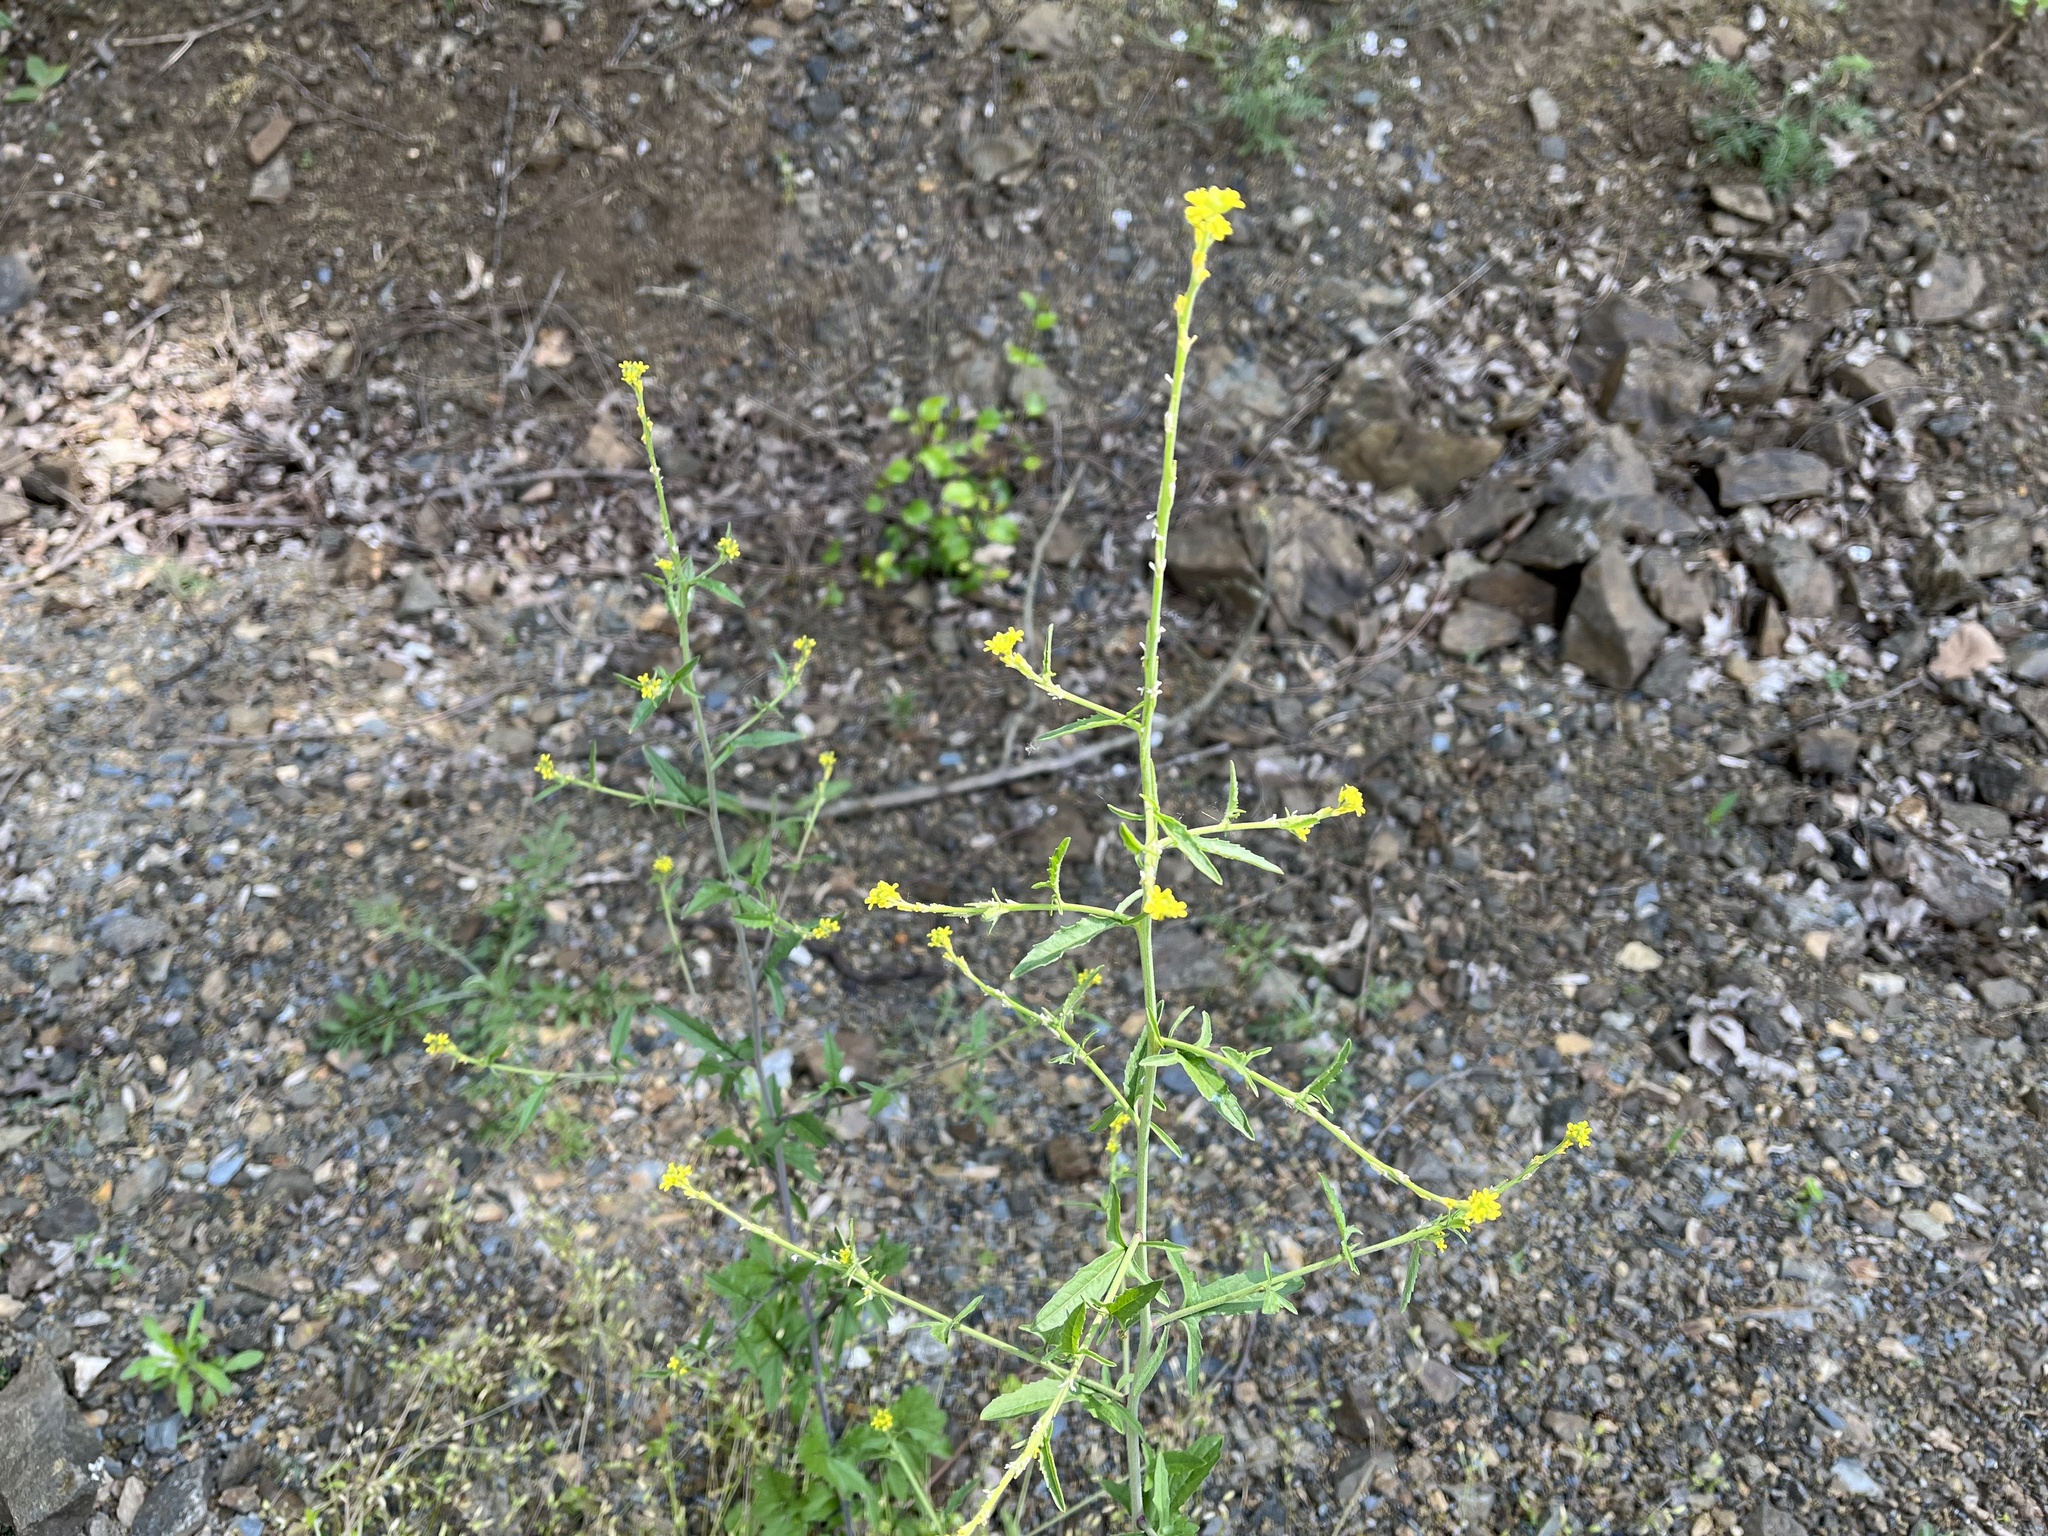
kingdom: Plantae
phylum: Tracheophyta
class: Magnoliopsida
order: Brassicales
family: Brassicaceae
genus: Sisymbrium
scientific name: Sisymbrium officinale
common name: Hedge mustard
